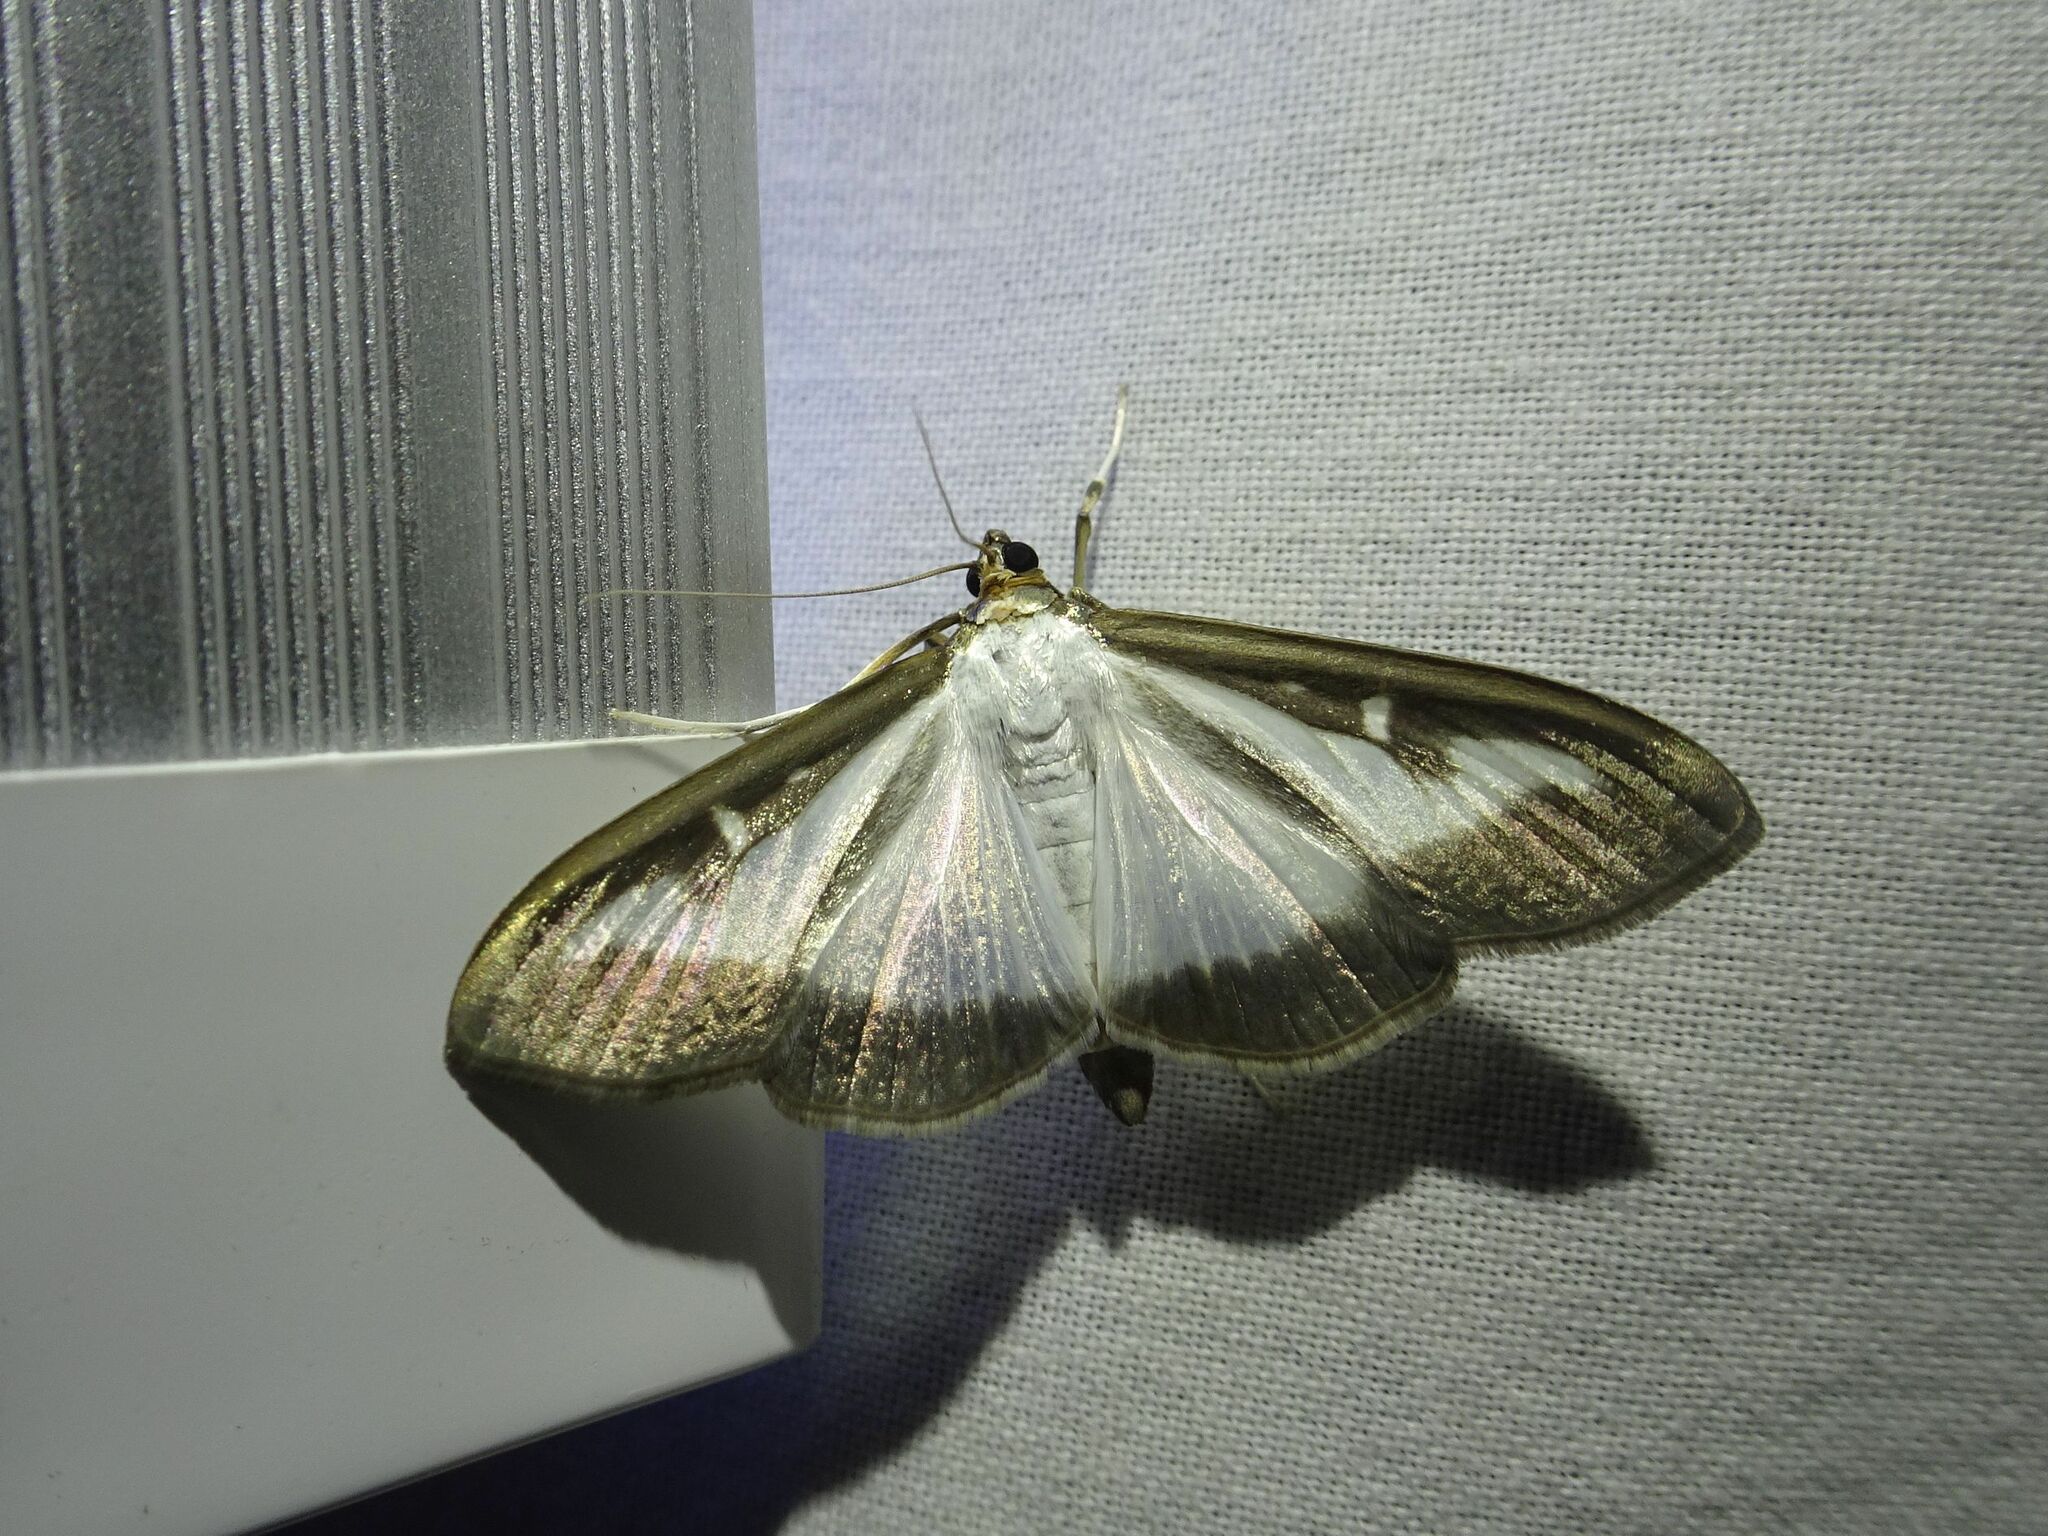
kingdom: Animalia
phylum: Arthropoda
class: Insecta
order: Lepidoptera
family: Crambidae
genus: Cydalima
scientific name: Cydalima perspectalis
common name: Box tree moth
